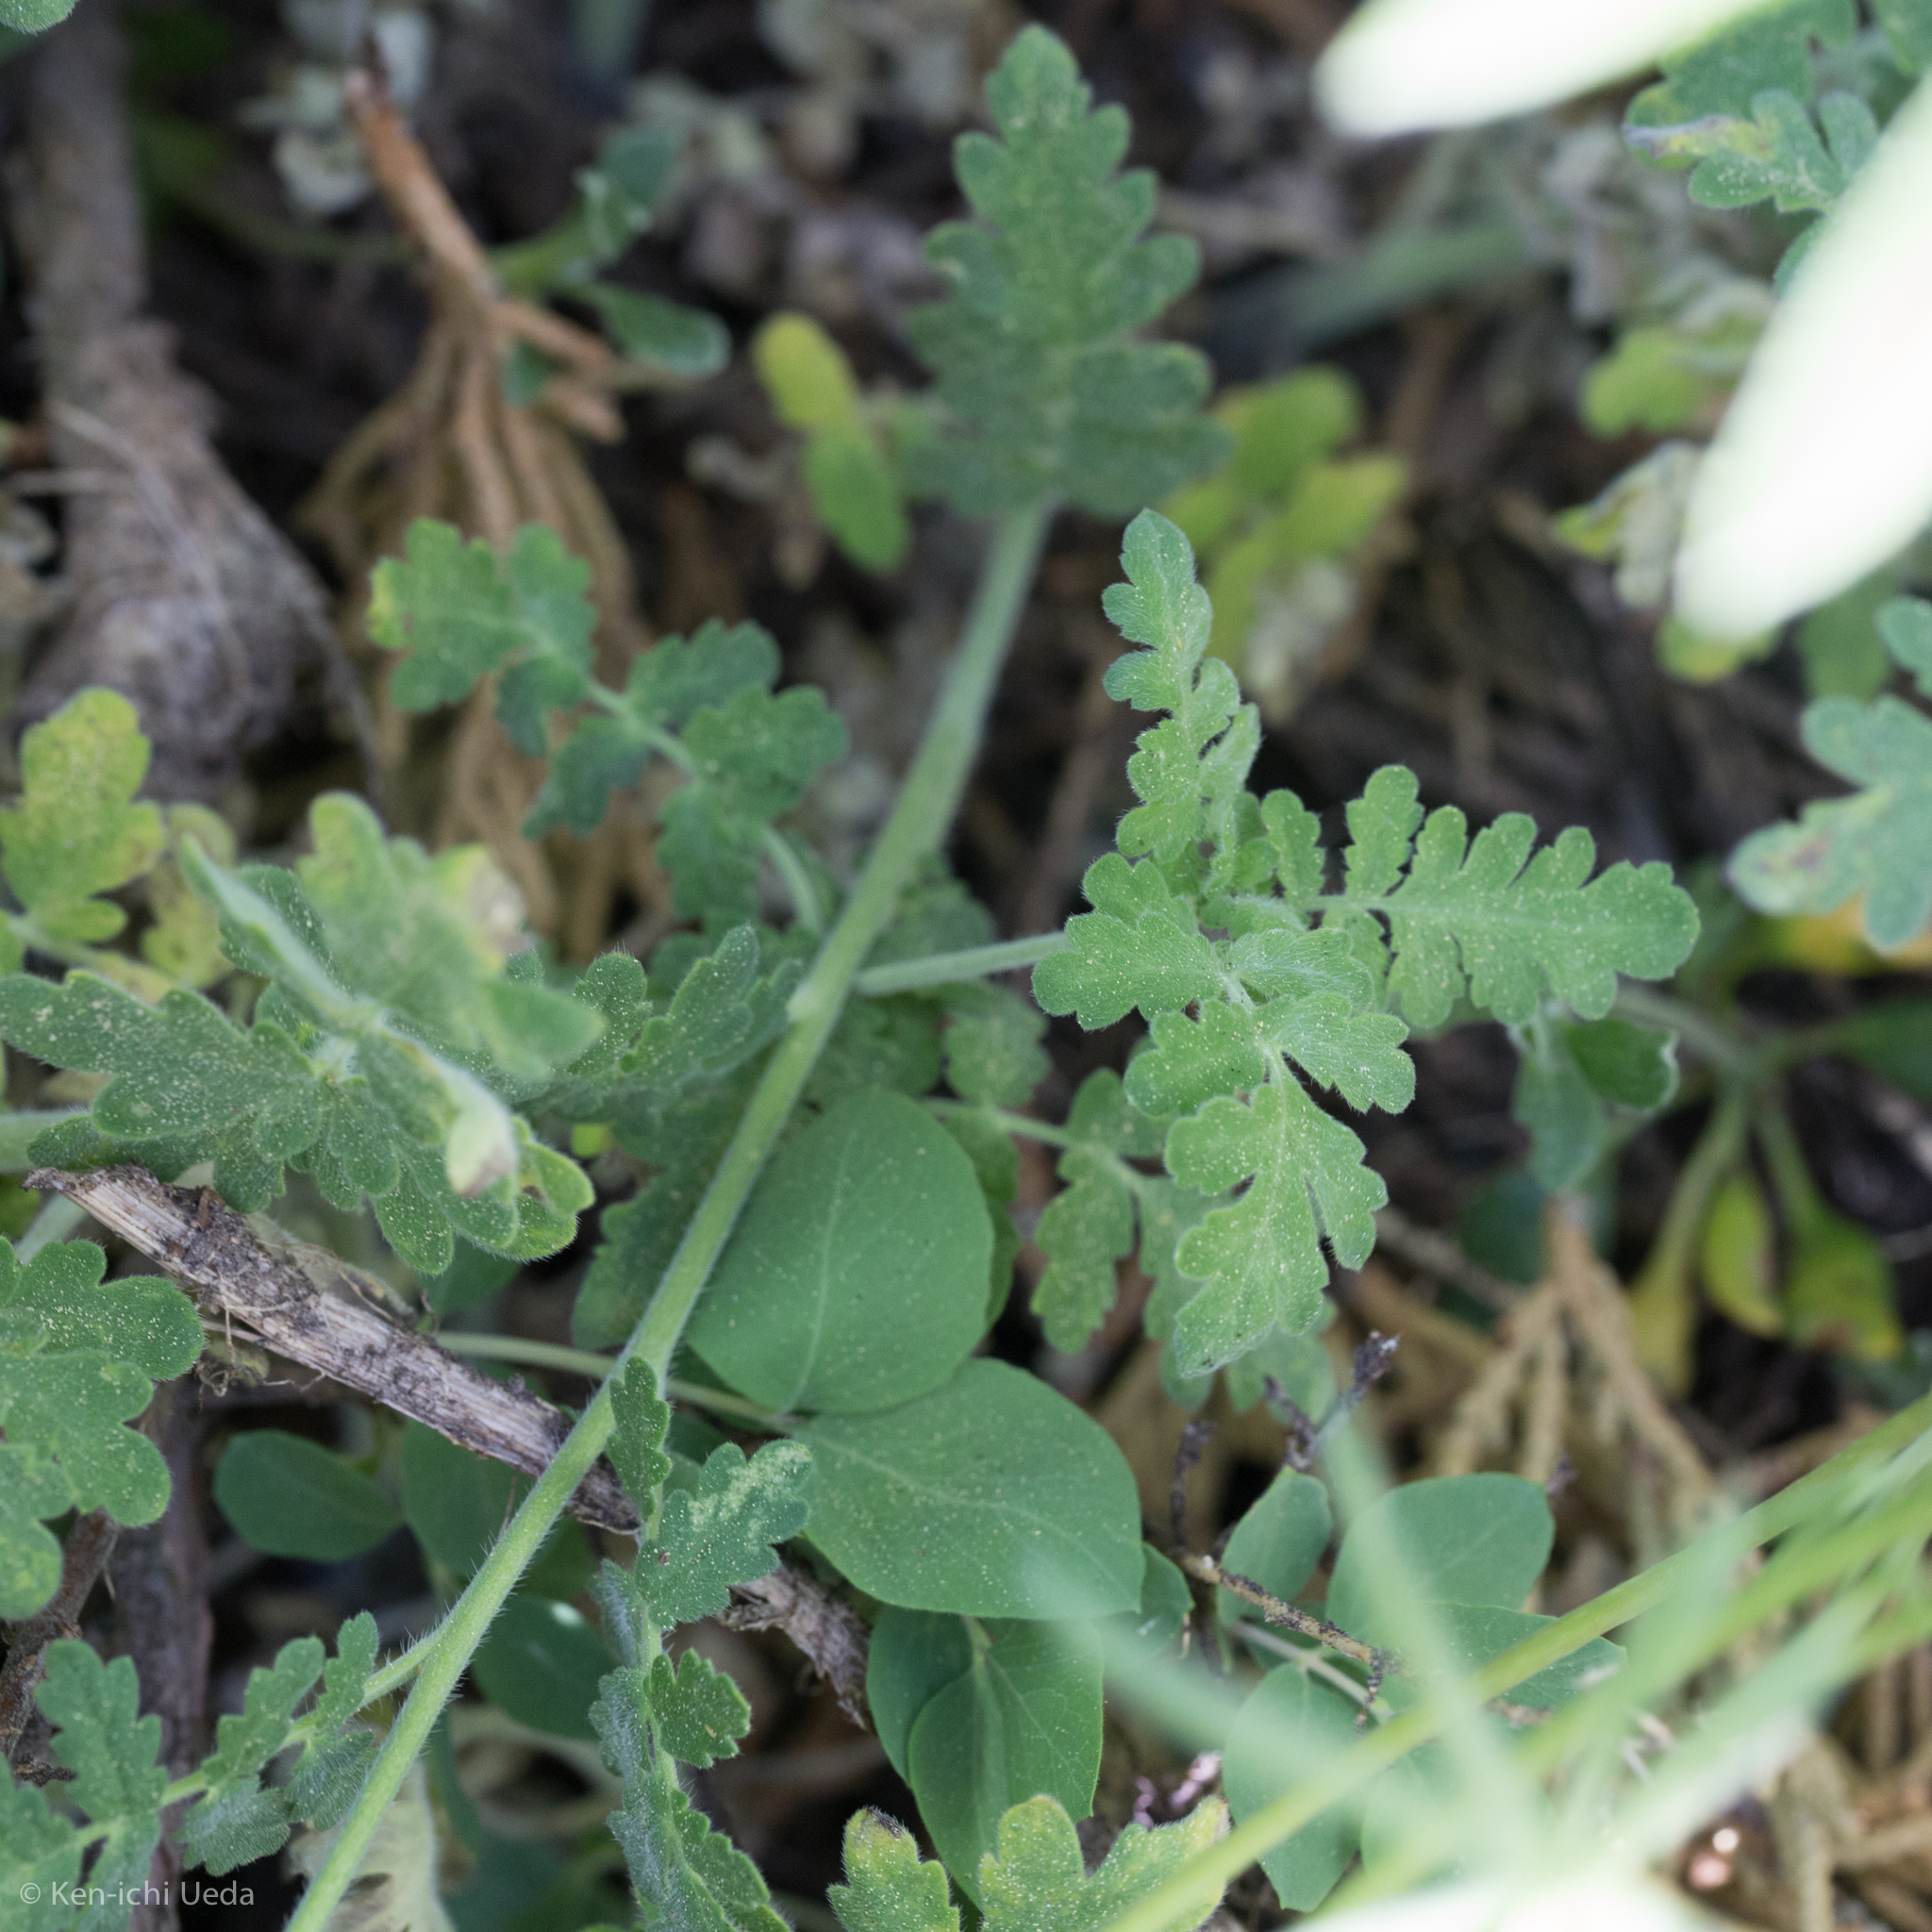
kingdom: Plantae
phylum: Tracheophyta
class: Magnoliopsida
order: Boraginales
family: Hydrophyllaceae
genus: Phacelia
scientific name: Phacelia ramosissima
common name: Branching phacelia
